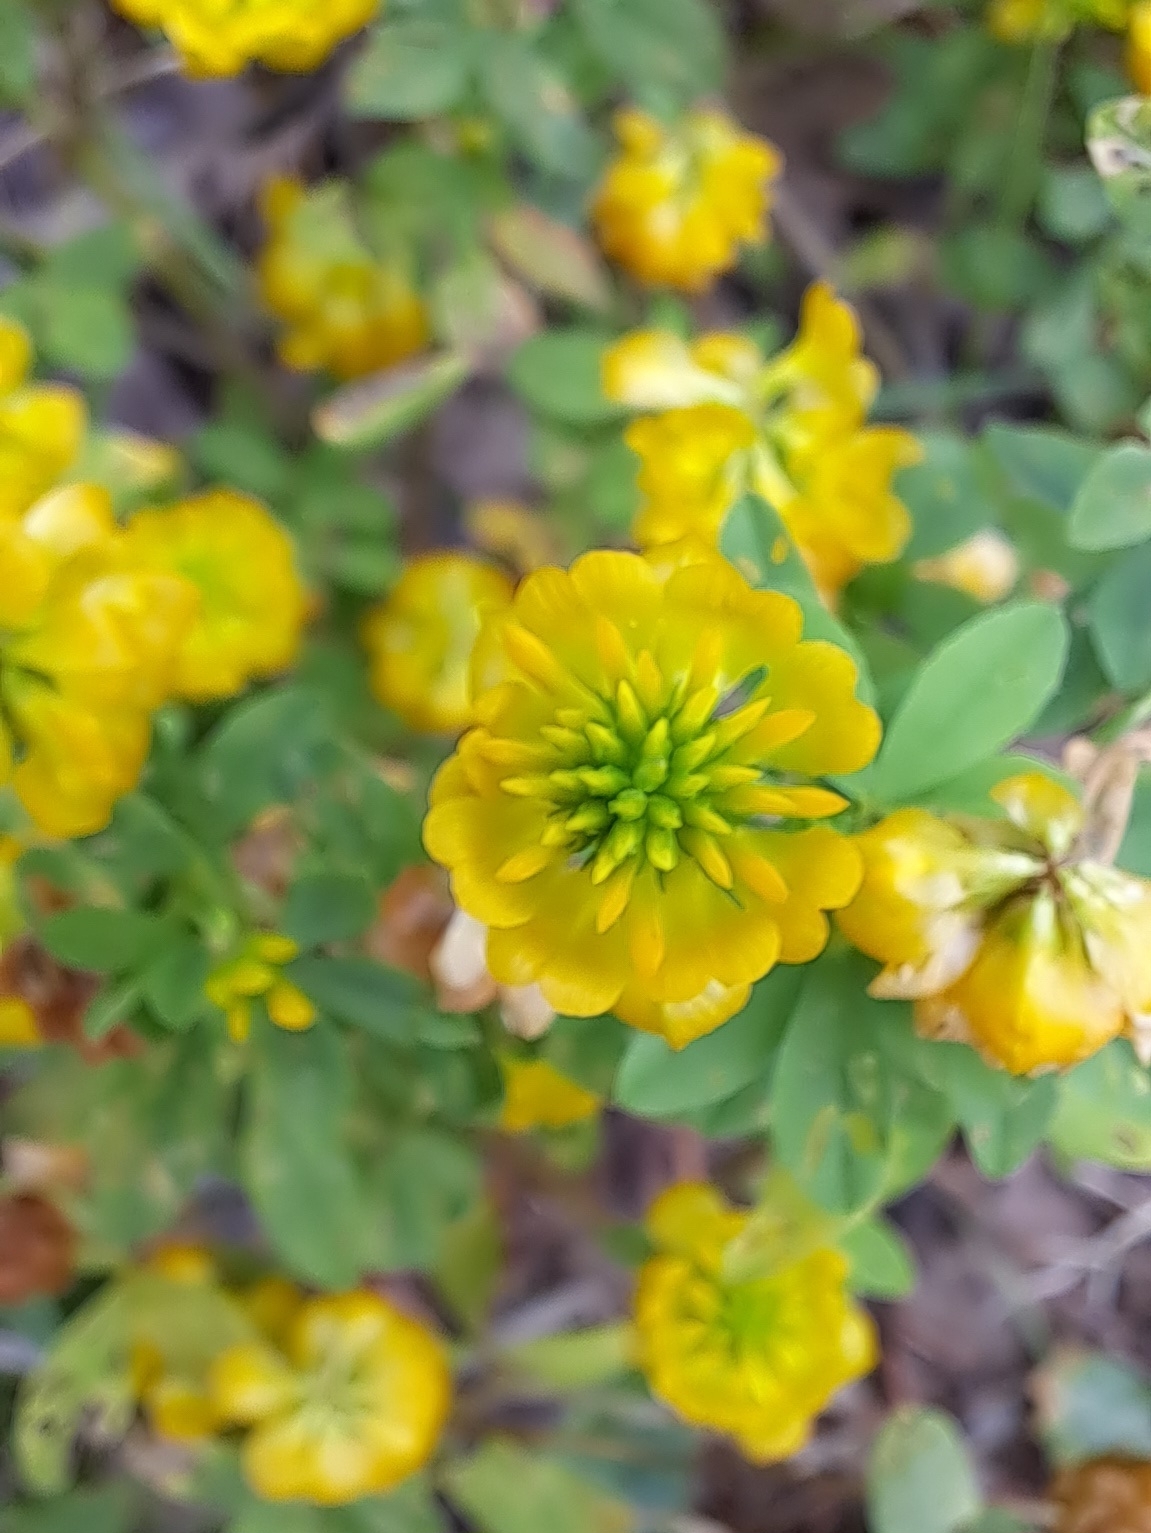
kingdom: Plantae
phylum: Tracheophyta
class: Magnoliopsida
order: Fabales
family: Fabaceae
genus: Trifolium
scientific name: Trifolium aureum
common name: Golden clover
